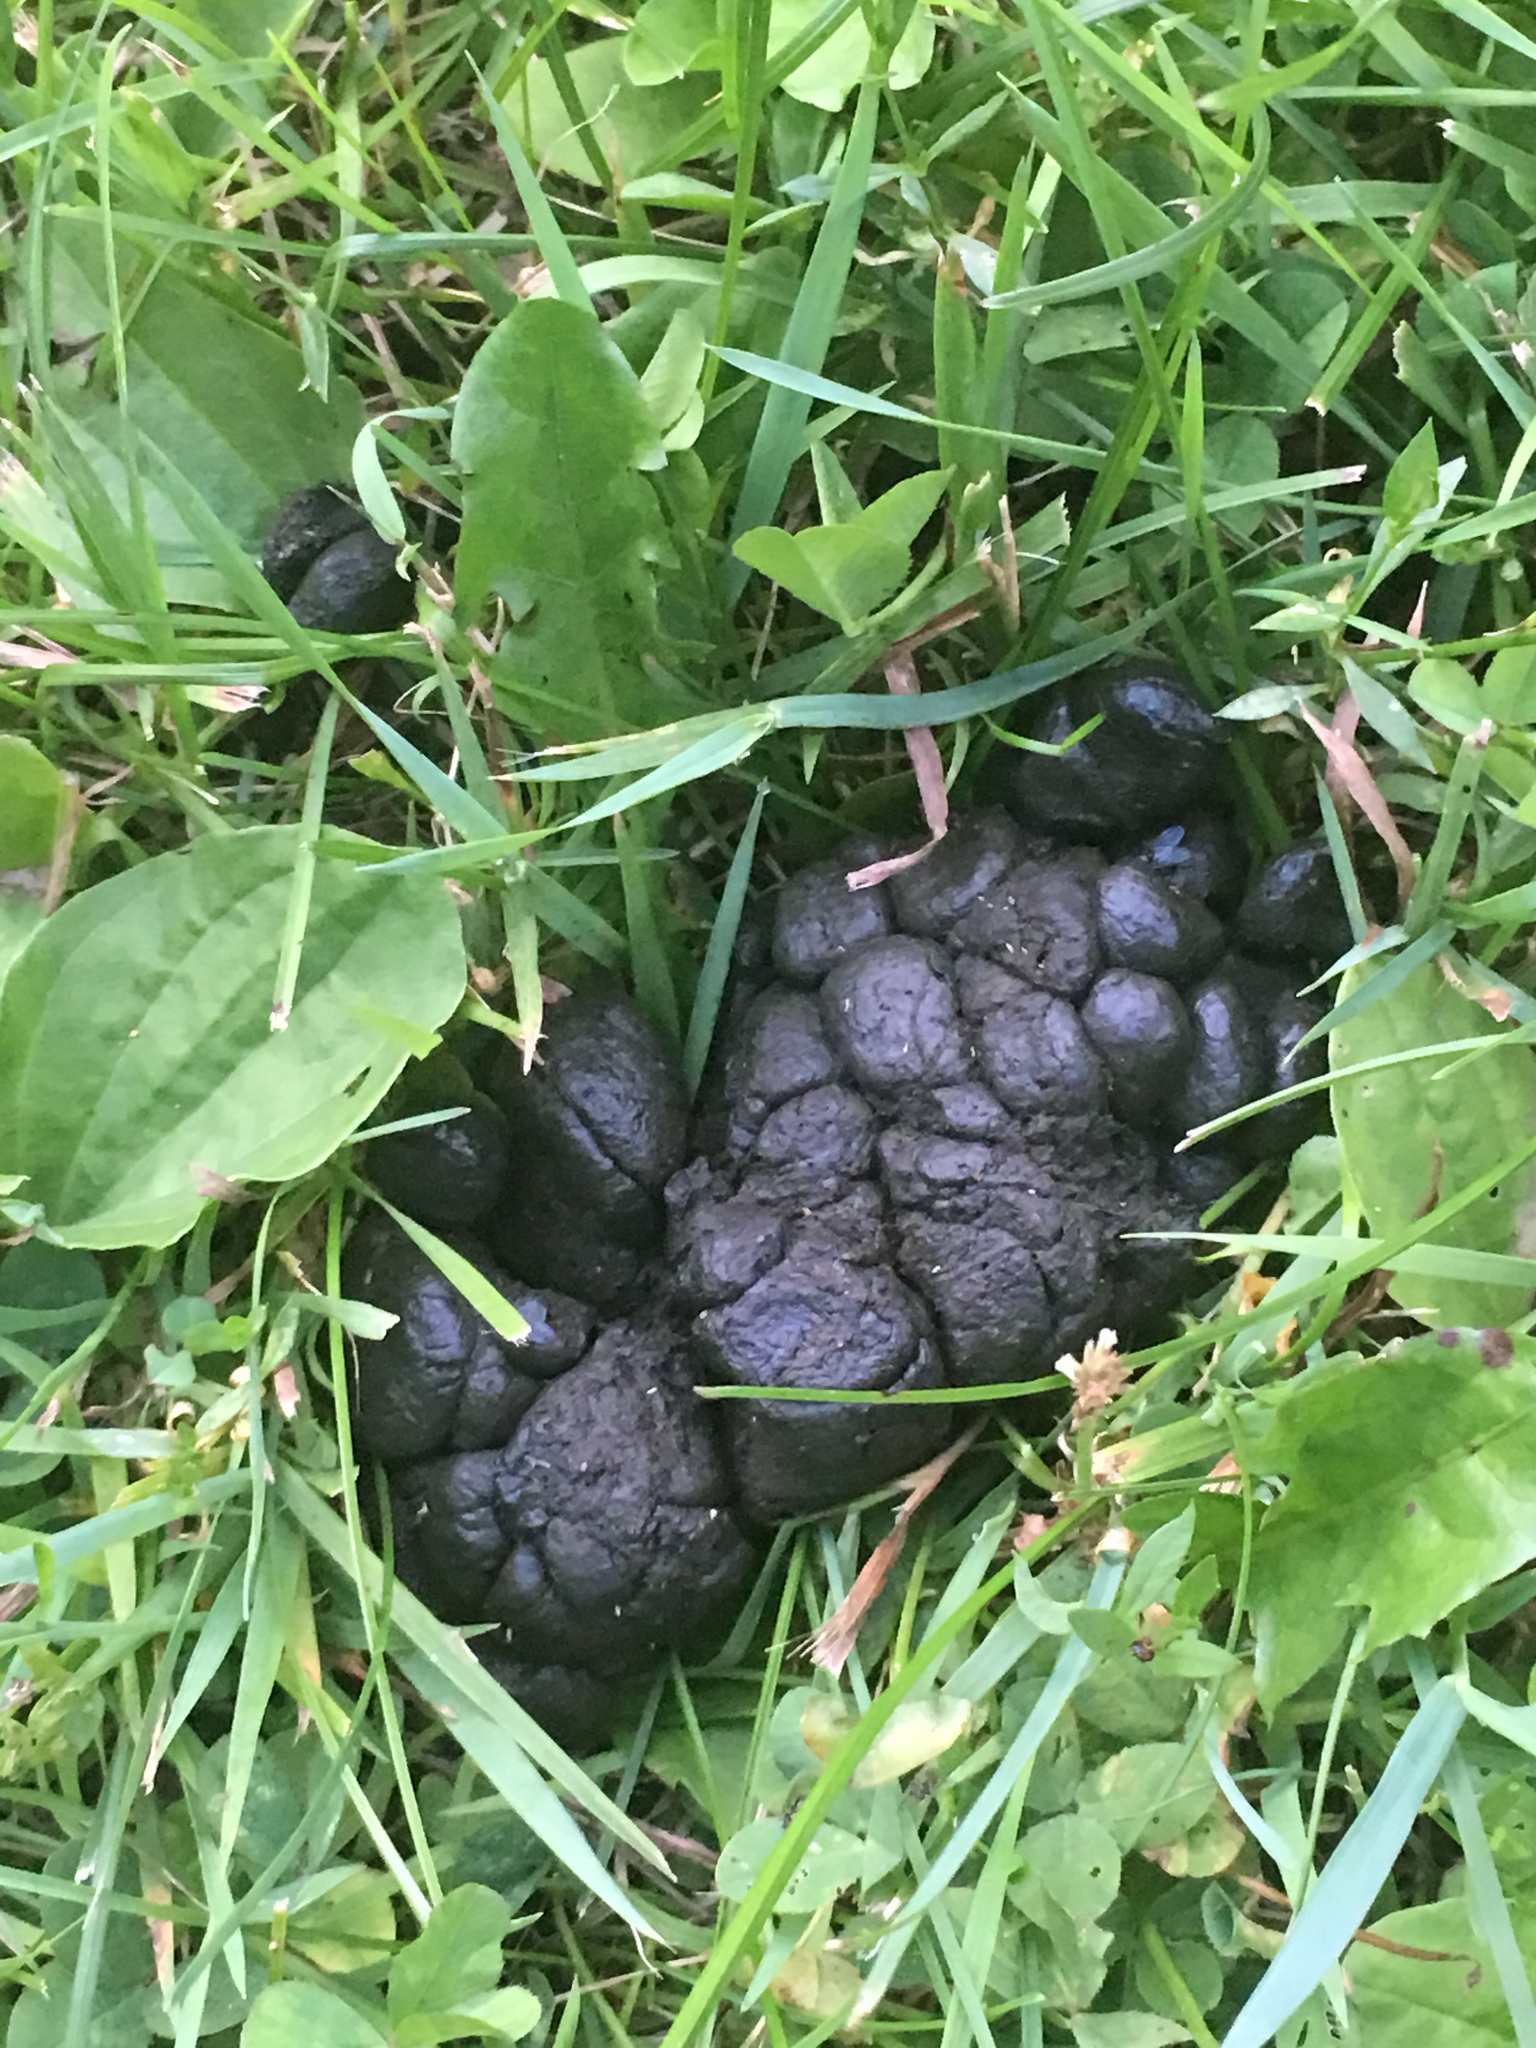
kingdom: Animalia
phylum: Chordata
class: Mammalia
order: Artiodactyla
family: Cervidae
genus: Odocoileus
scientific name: Odocoileus virginianus
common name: White-tailed deer
